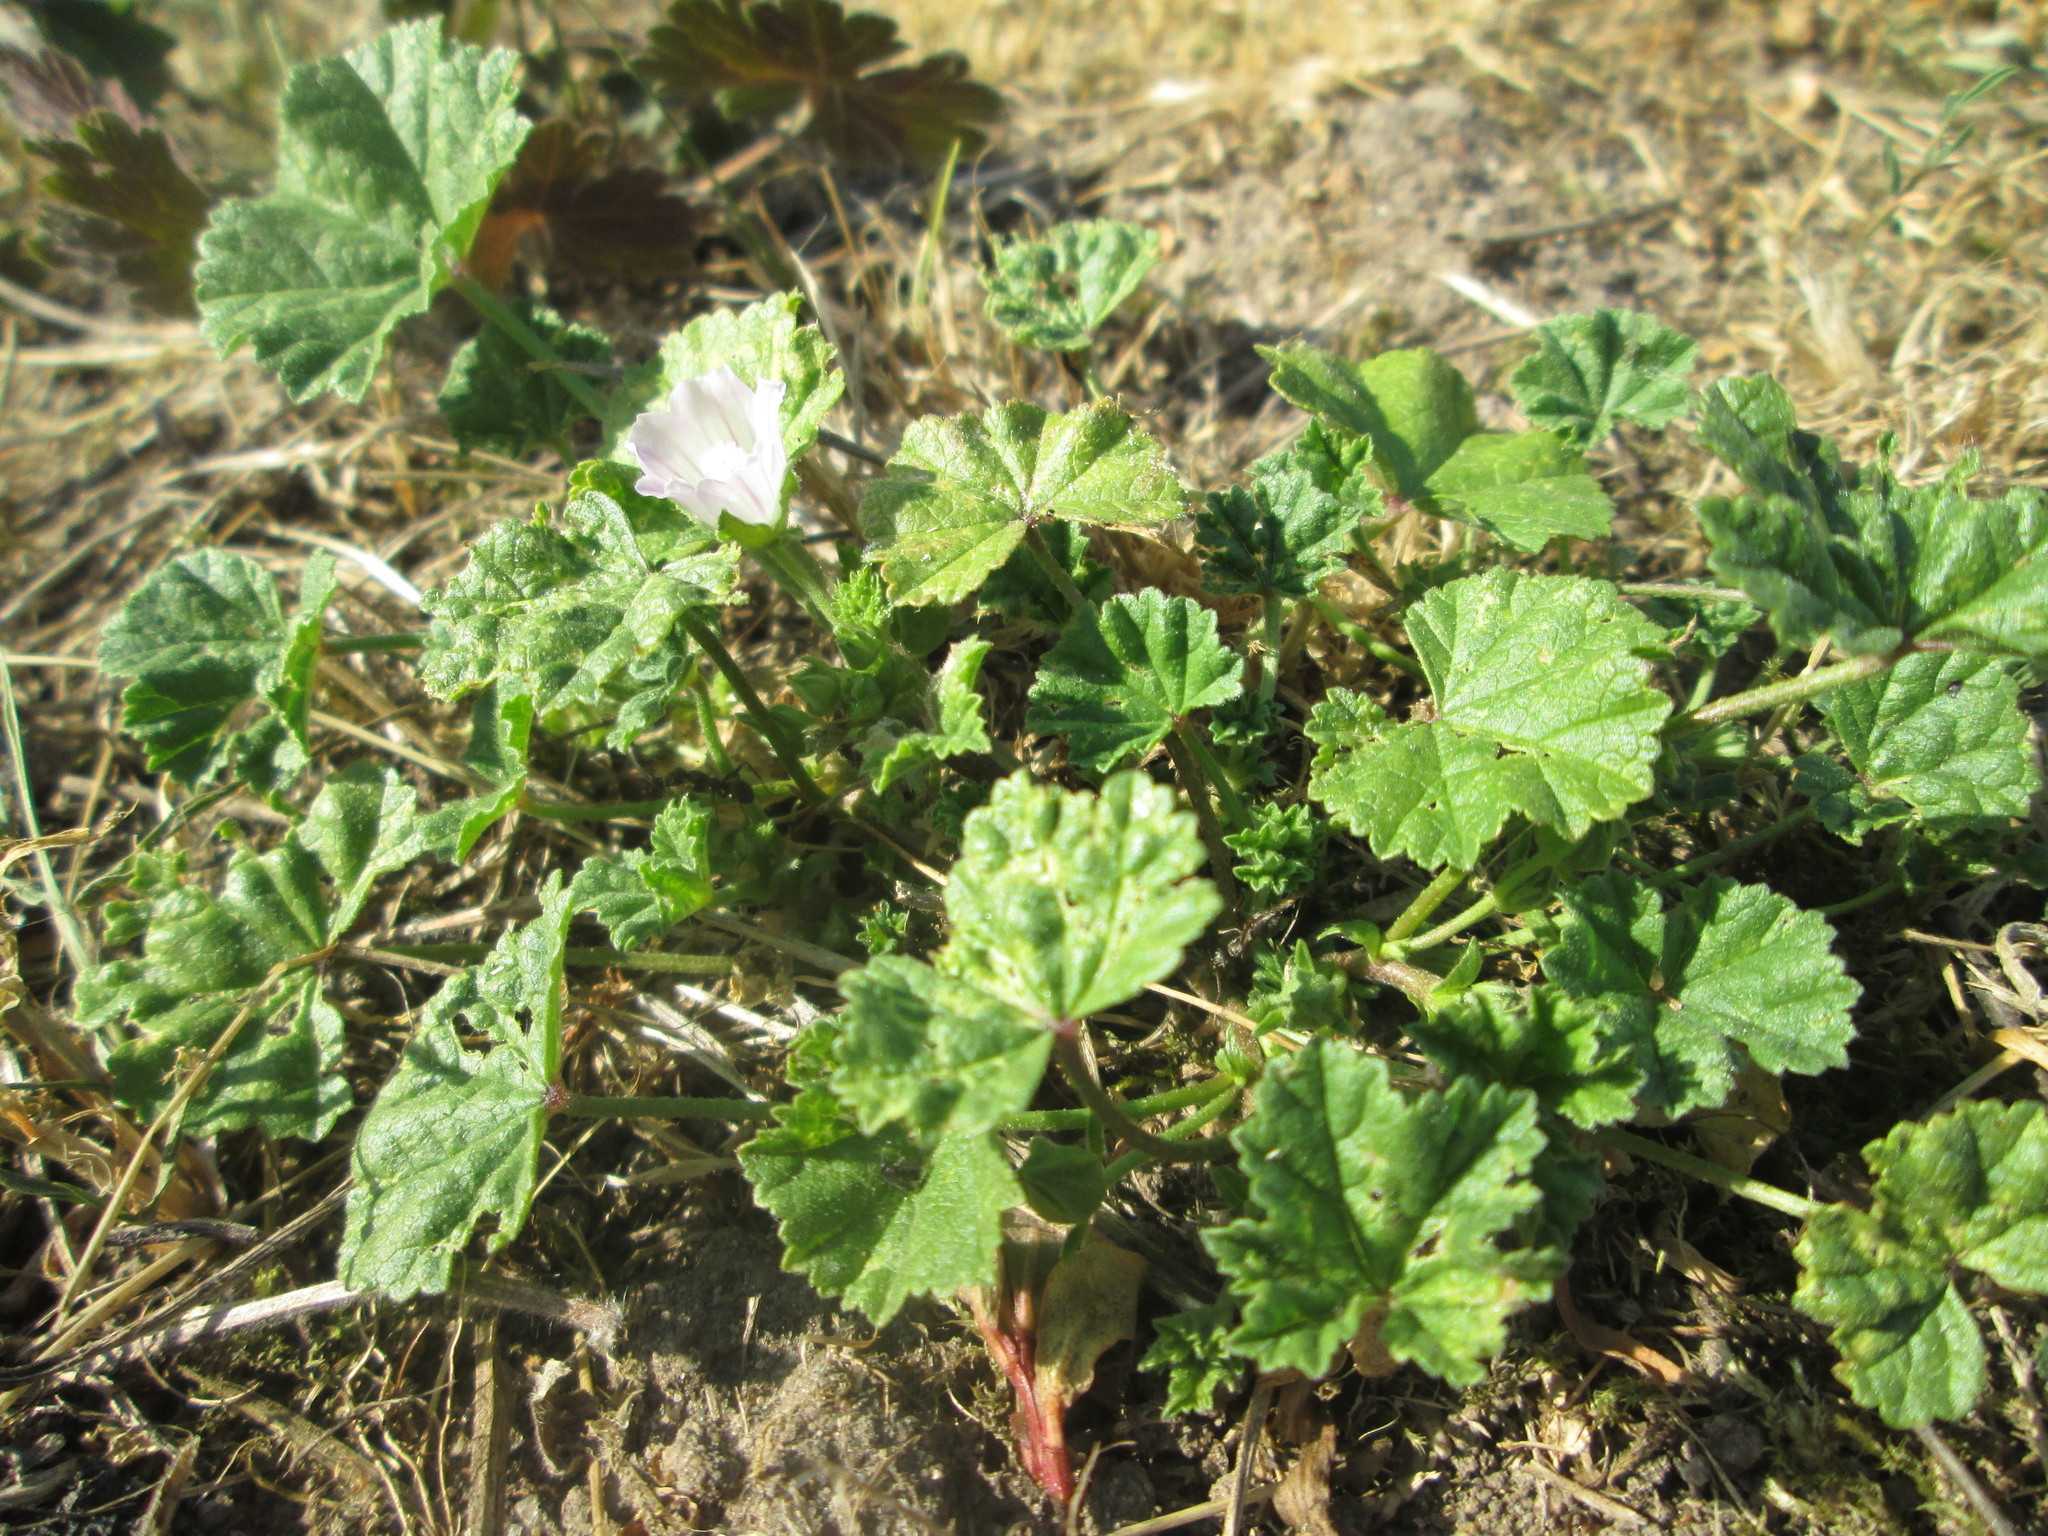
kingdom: Plantae
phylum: Tracheophyta
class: Magnoliopsida
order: Malvales
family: Malvaceae
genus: Malva
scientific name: Malva neglecta
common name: Common mallow
